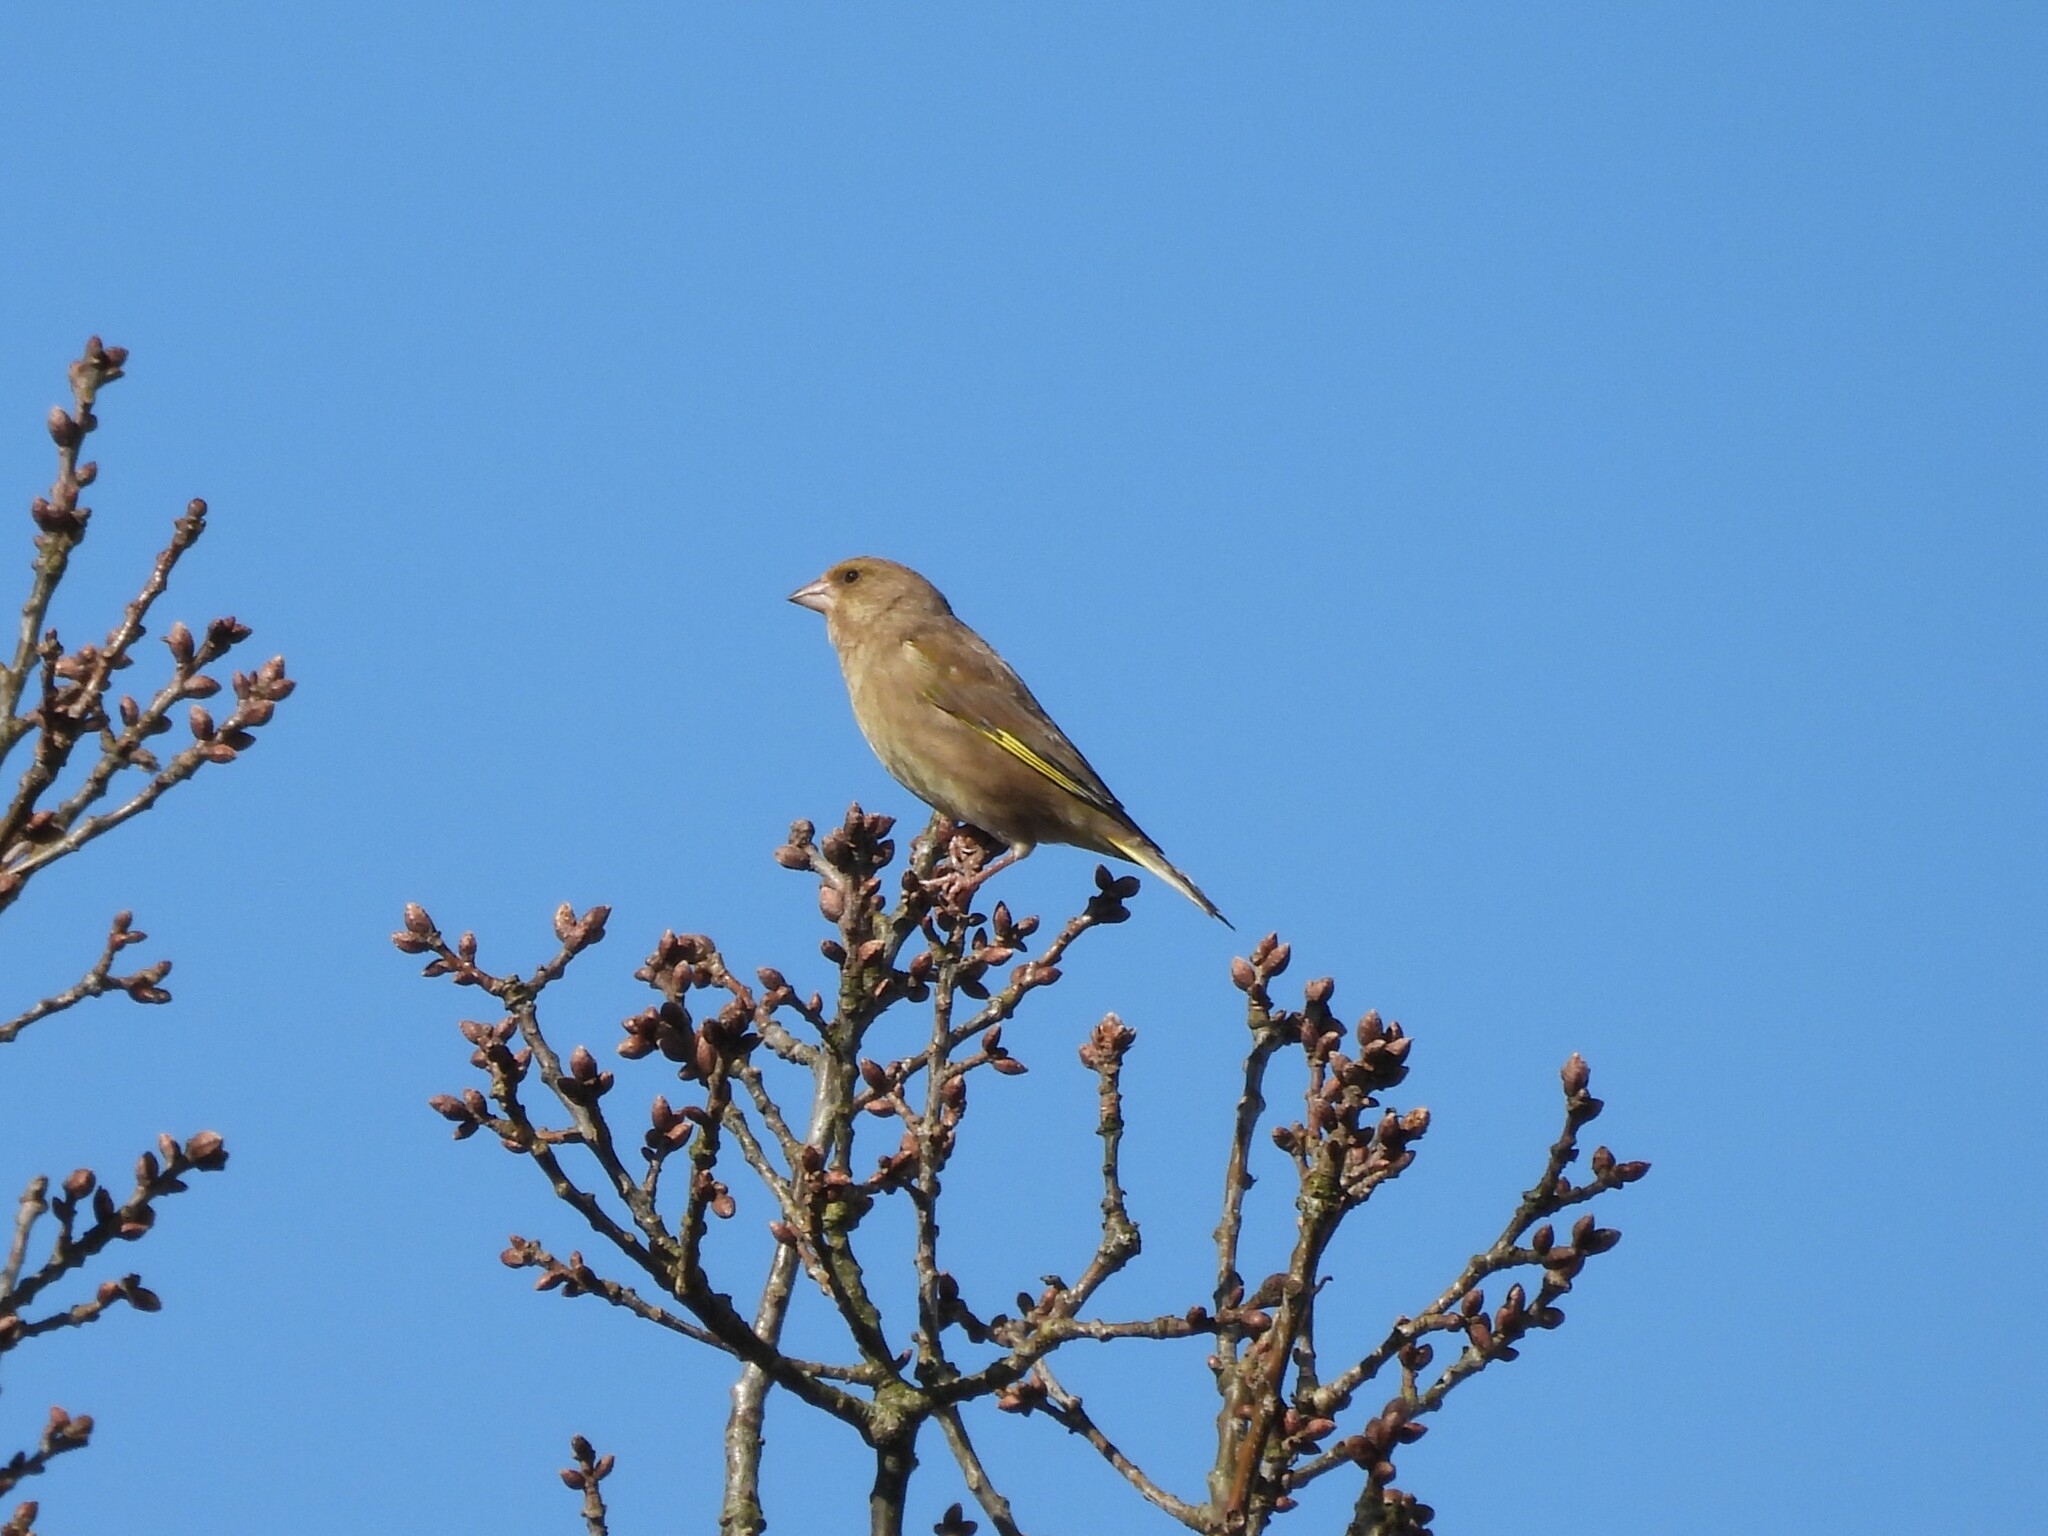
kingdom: Plantae
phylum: Tracheophyta
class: Liliopsida
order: Poales
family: Poaceae
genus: Chloris
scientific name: Chloris chloris
